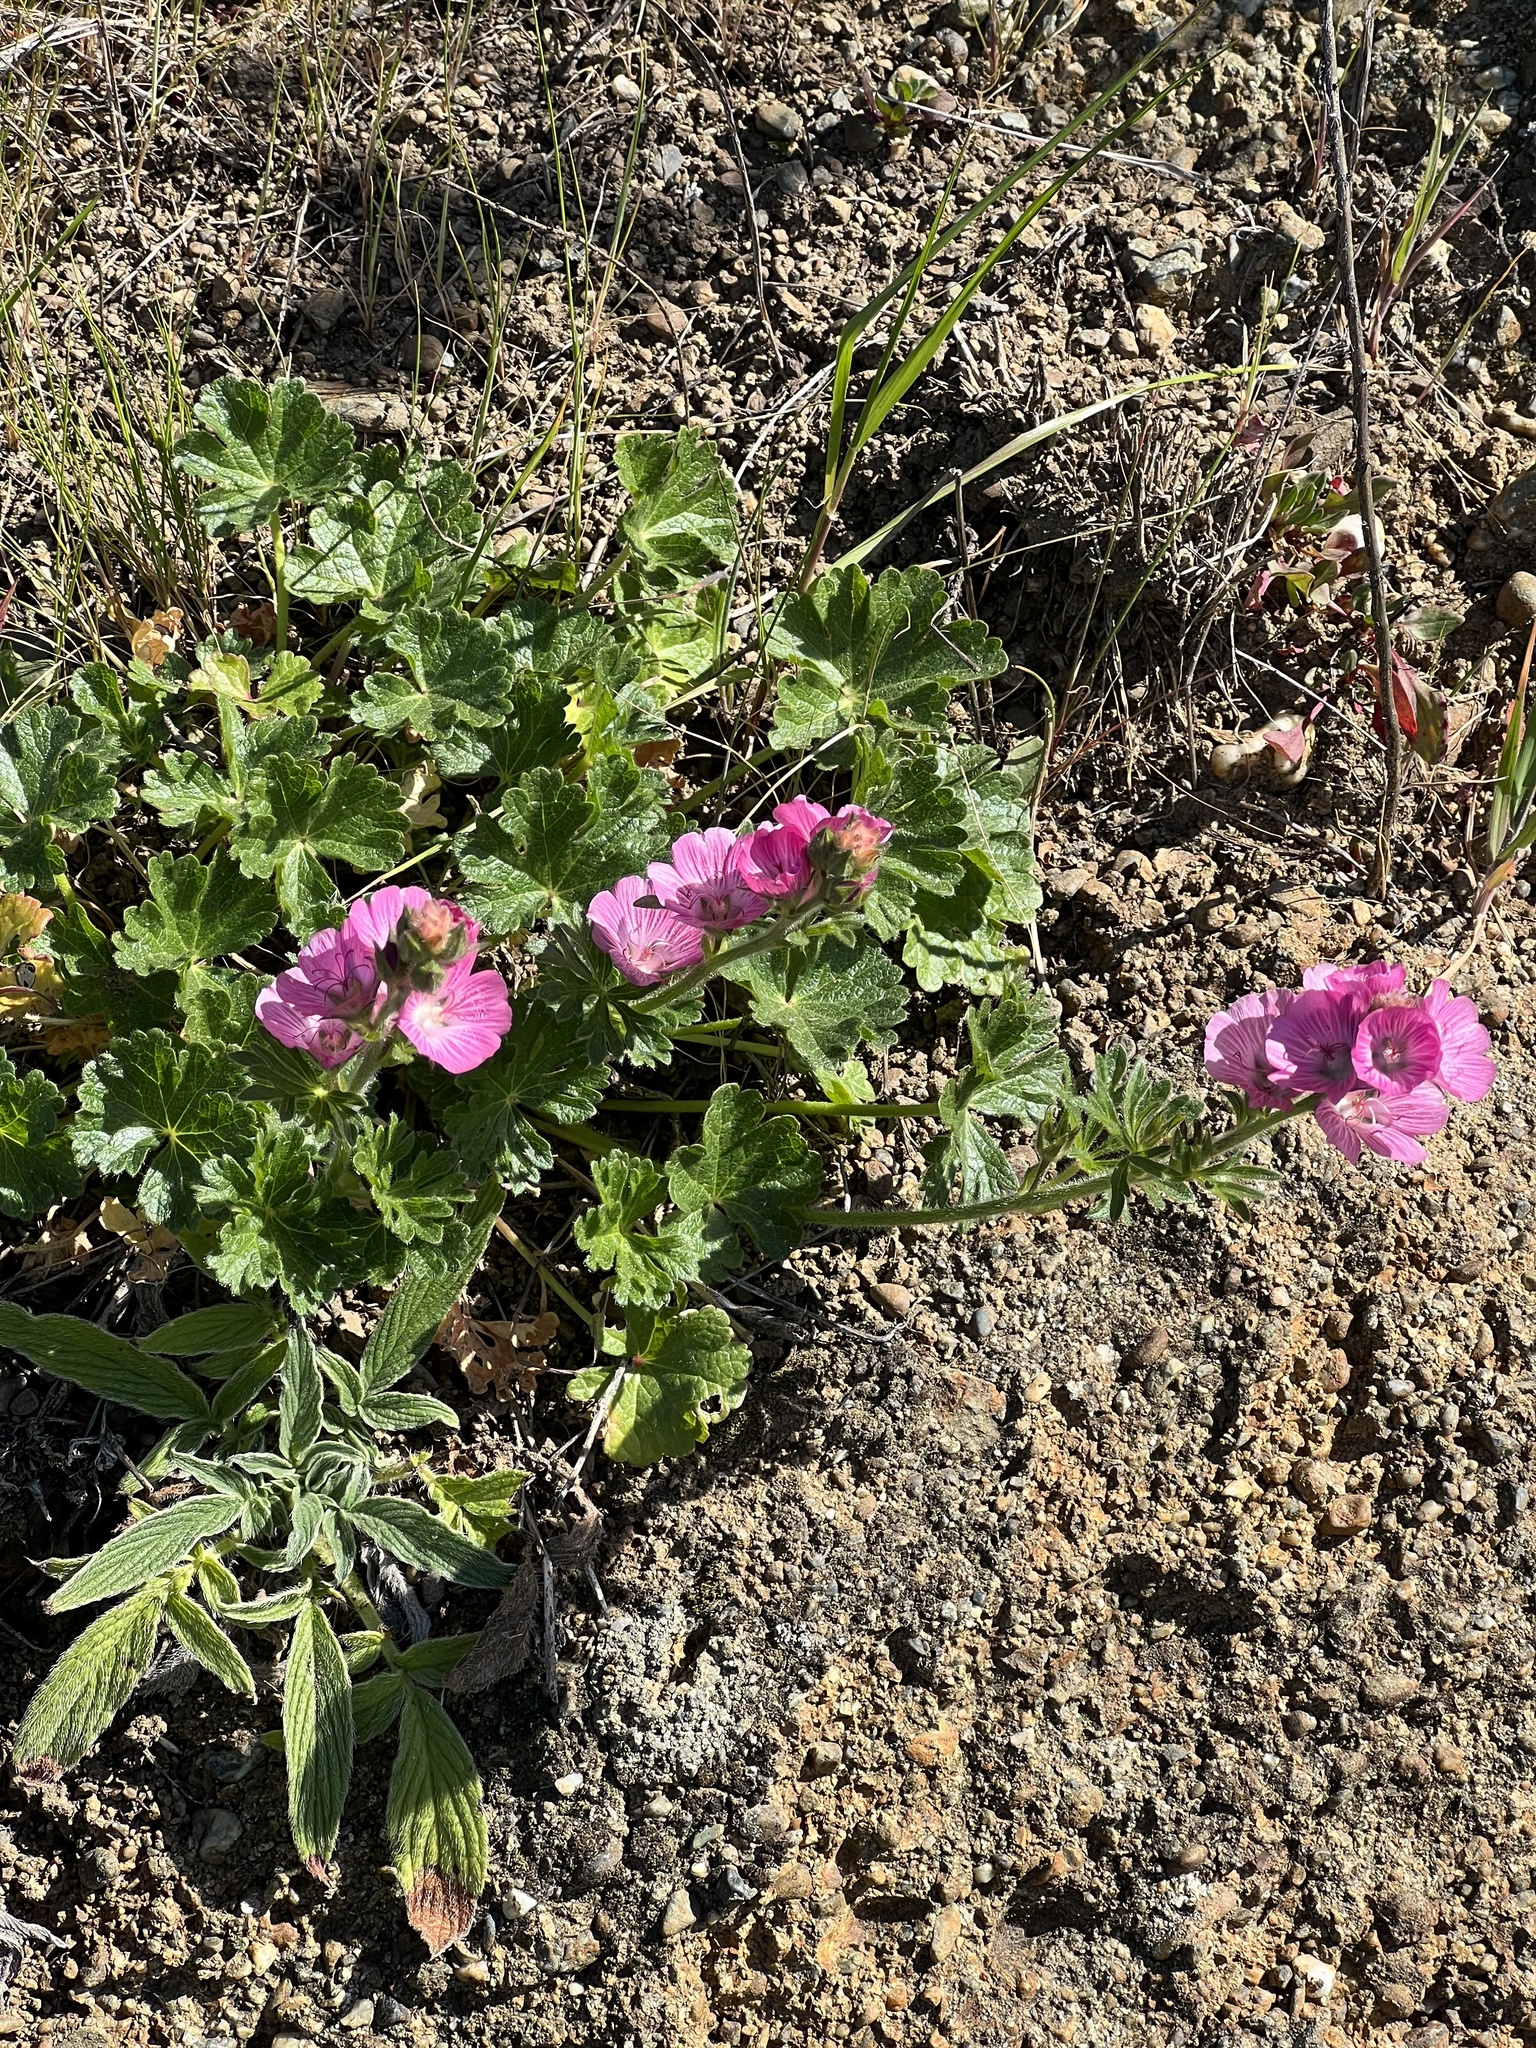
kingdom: Plantae
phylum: Tracheophyta
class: Magnoliopsida
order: Malvales
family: Malvaceae
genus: Sidalcea
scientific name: Sidalcea malviflora
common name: Greek mallow
